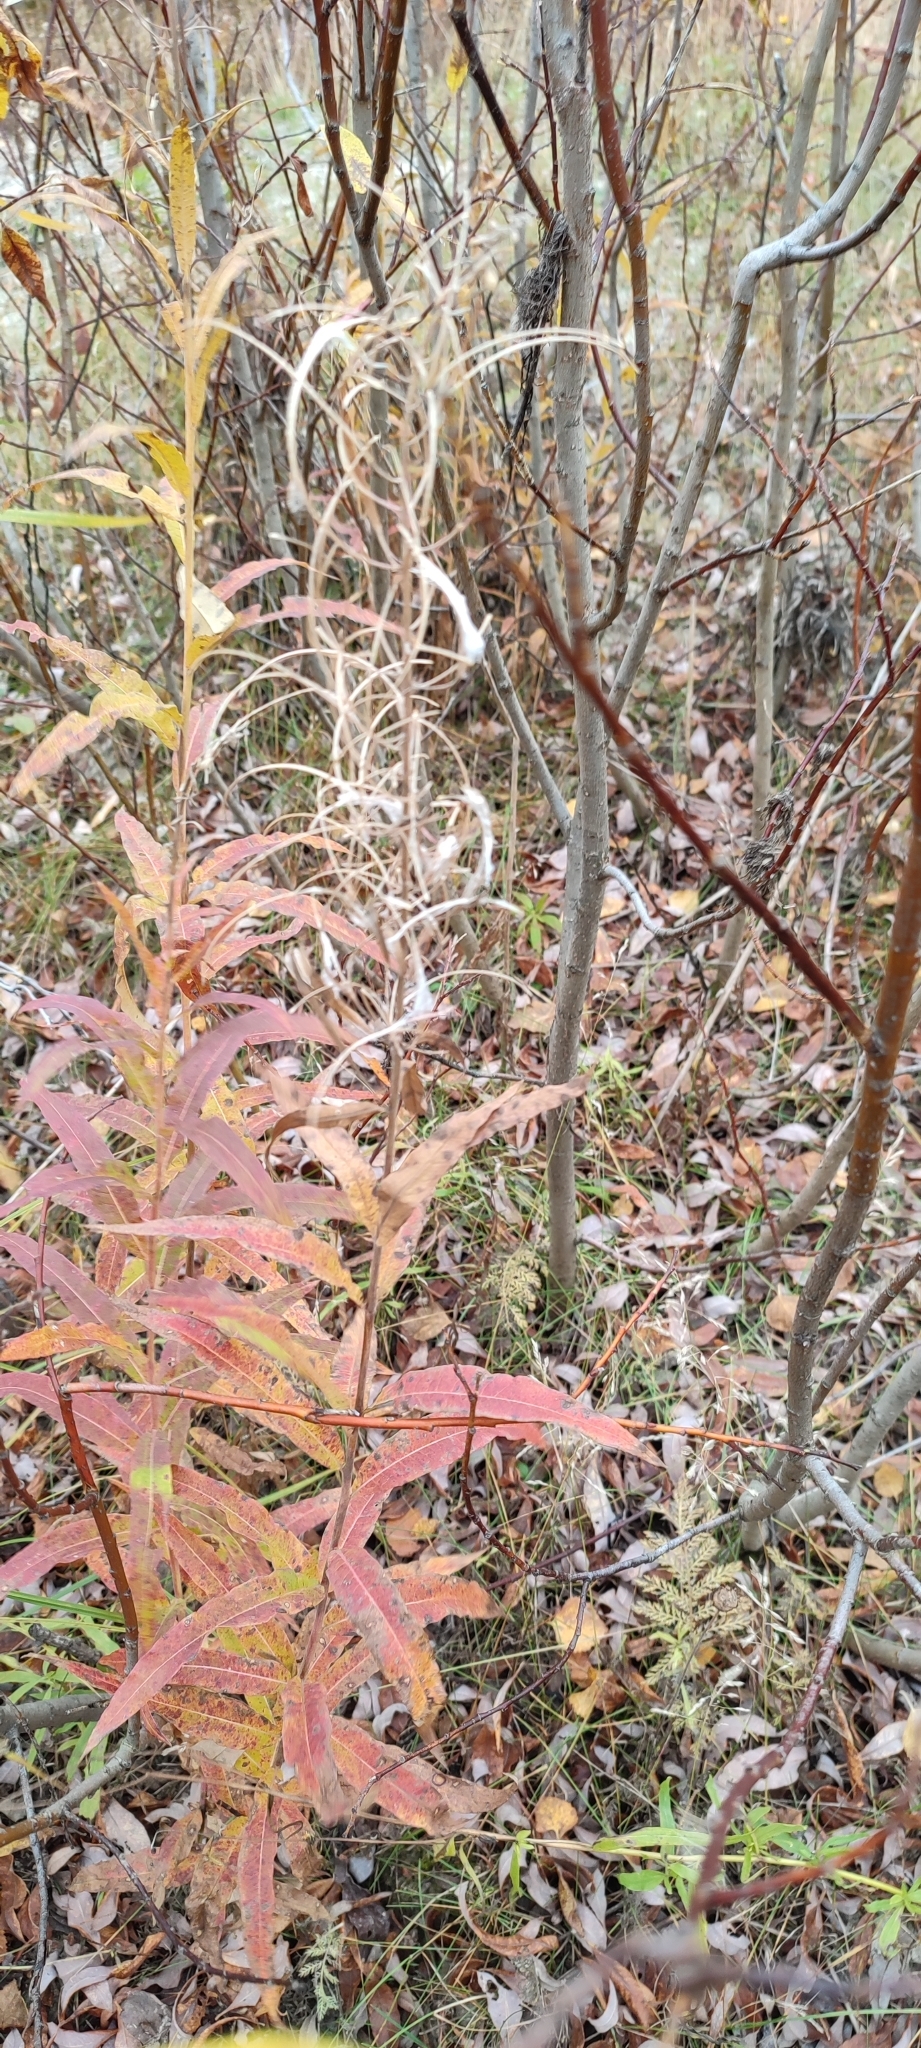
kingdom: Plantae
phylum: Tracheophyta
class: Magnoliopsida
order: Myrtales
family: Onagraceae
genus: Chamaenerion
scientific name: Chamaenerion angustifolium
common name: Fireweed
